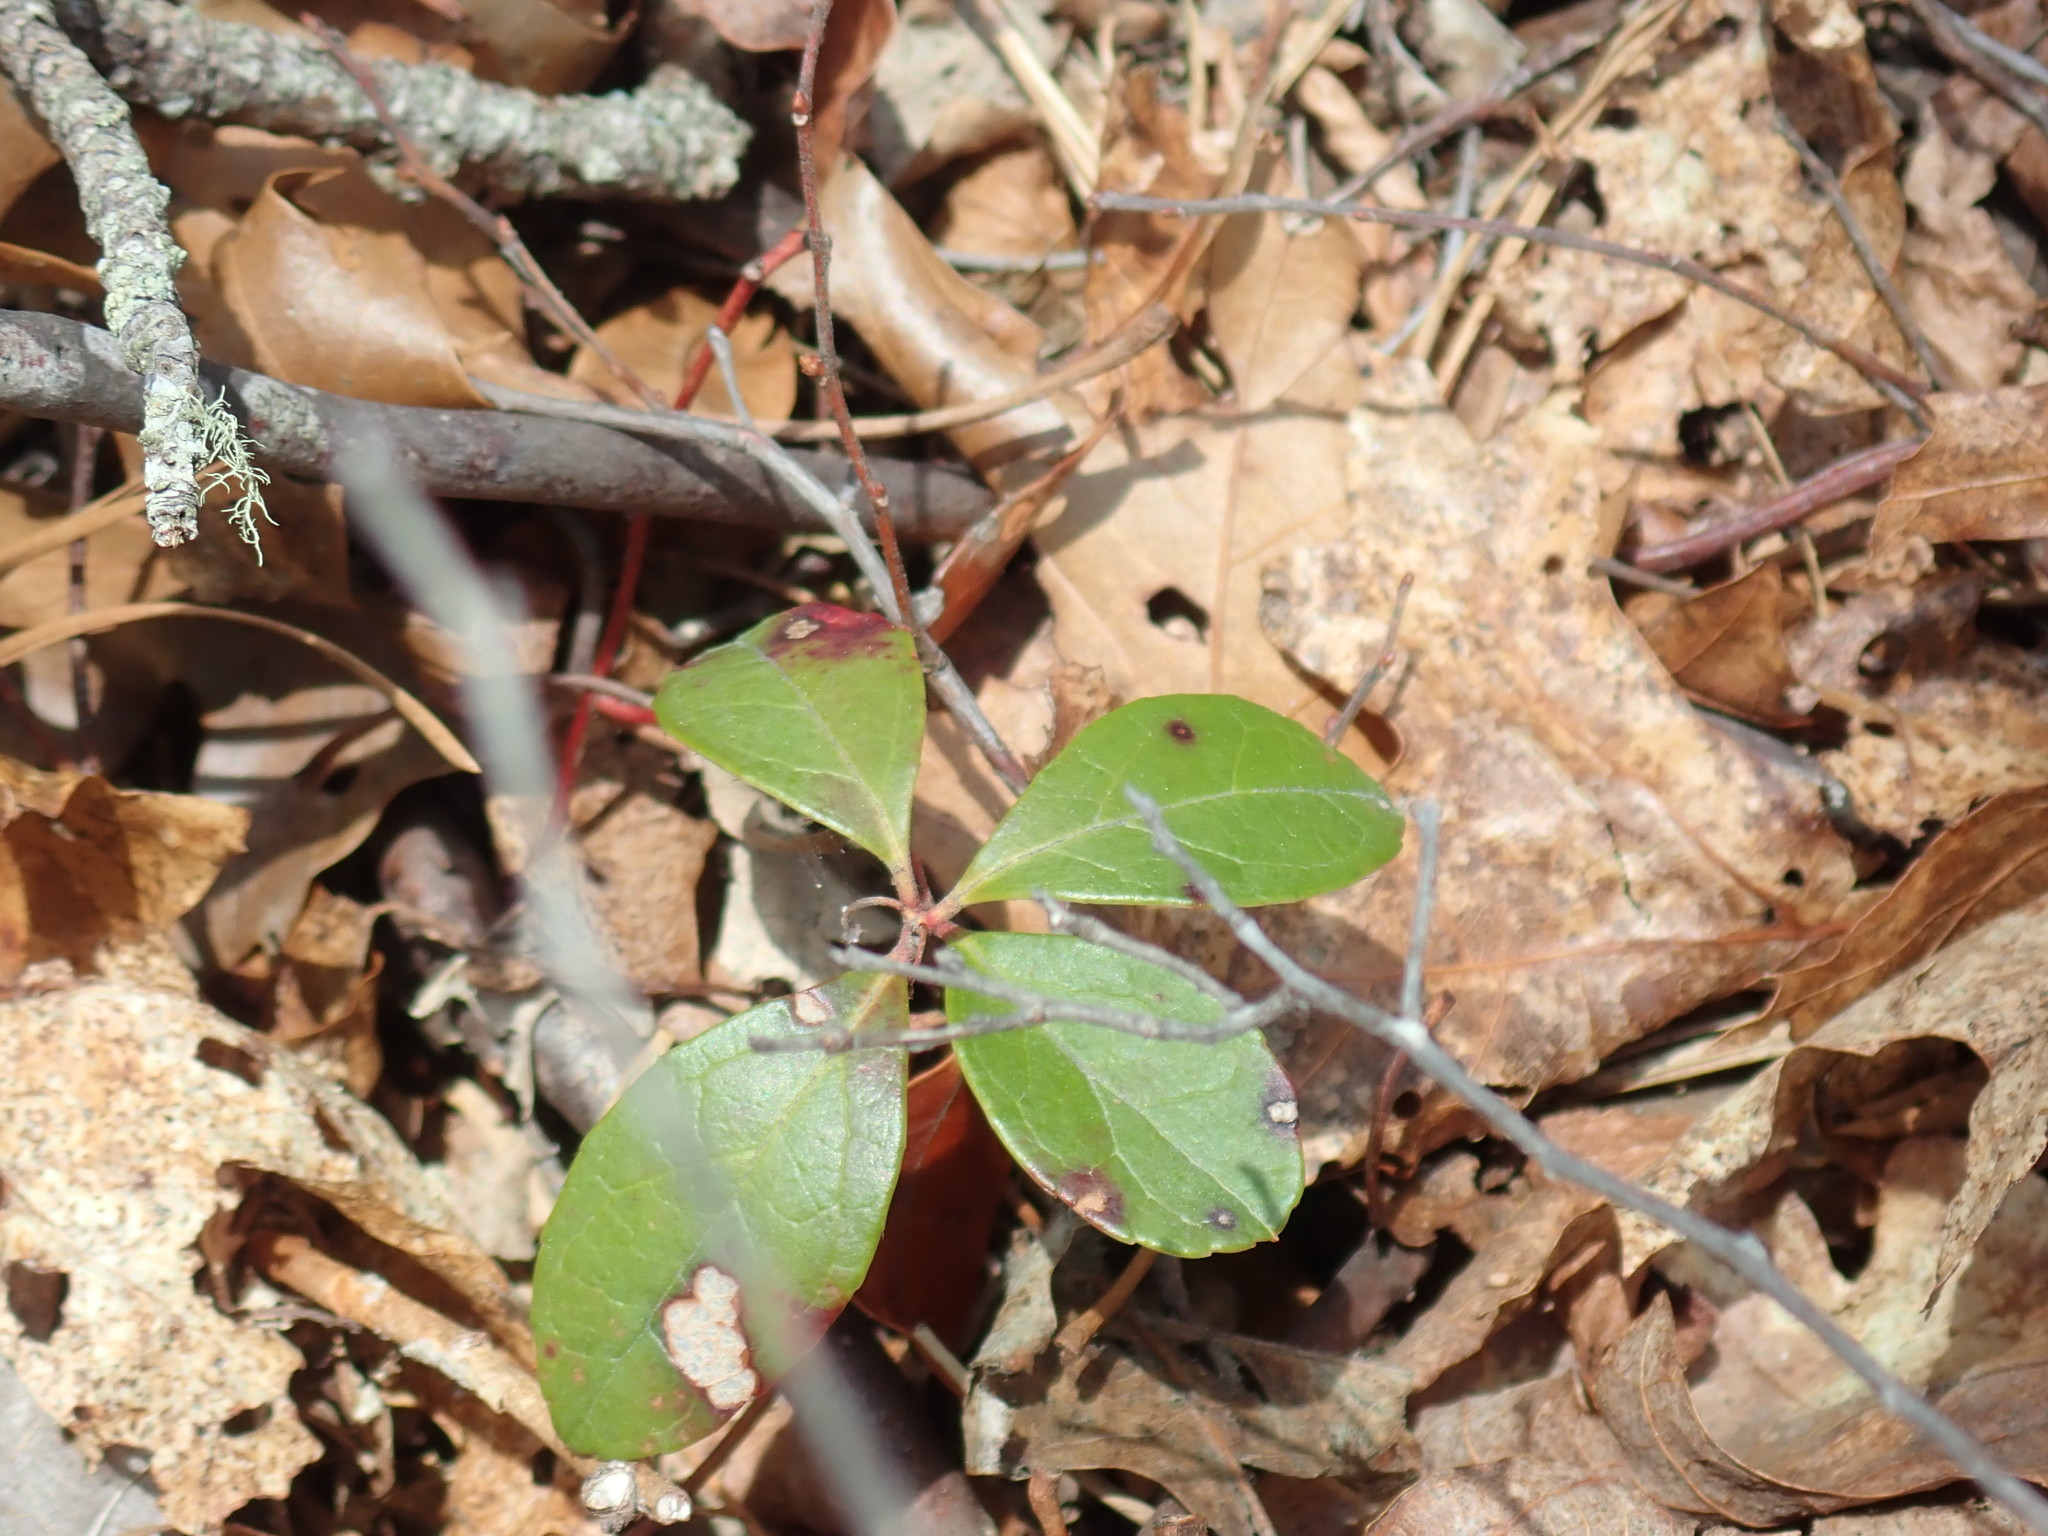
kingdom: Plantae
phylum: Tracheophyta
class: Magnoliopsida
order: Ericales
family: Ericaceae
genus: Gaultheria
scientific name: Gaultheria procumbens
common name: Checkerberry
